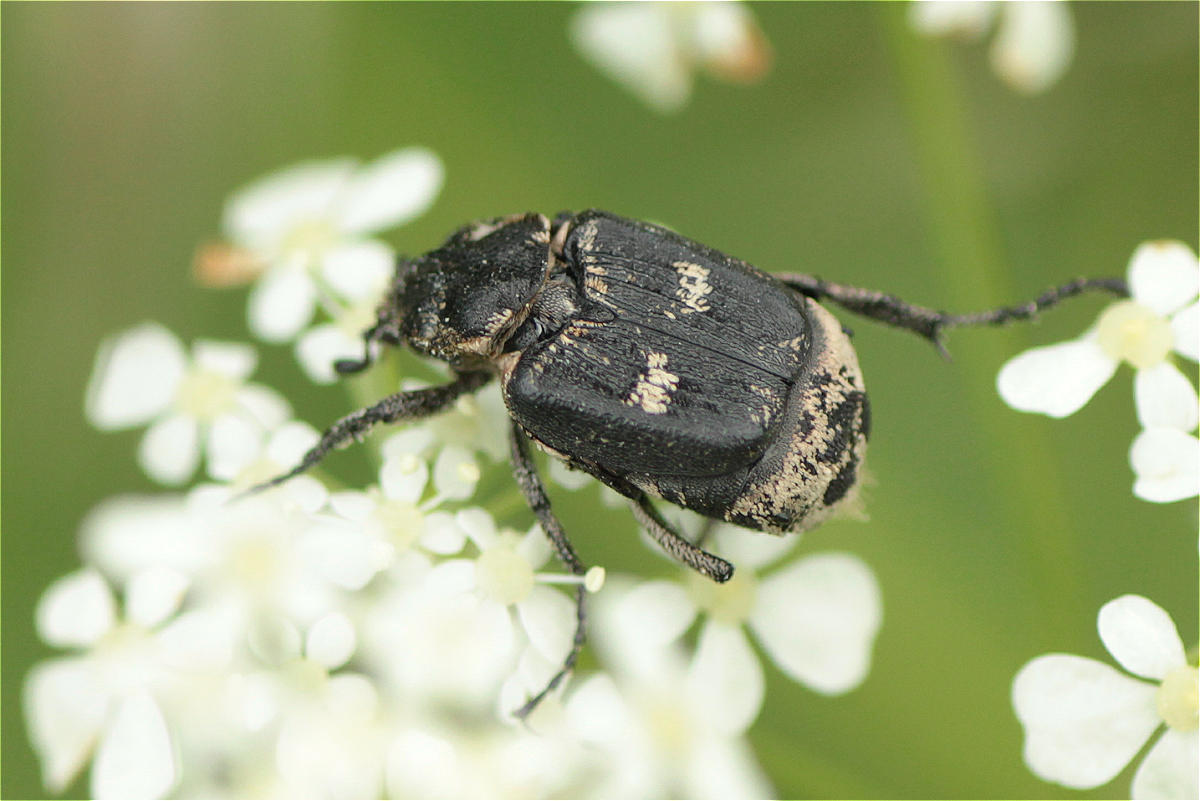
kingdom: Animalia
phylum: Arthropoda
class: Insecta
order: Coleoptera
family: Scarabaeidae
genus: Valgus
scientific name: Valgus hemipterus
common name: Bug flower chafer
